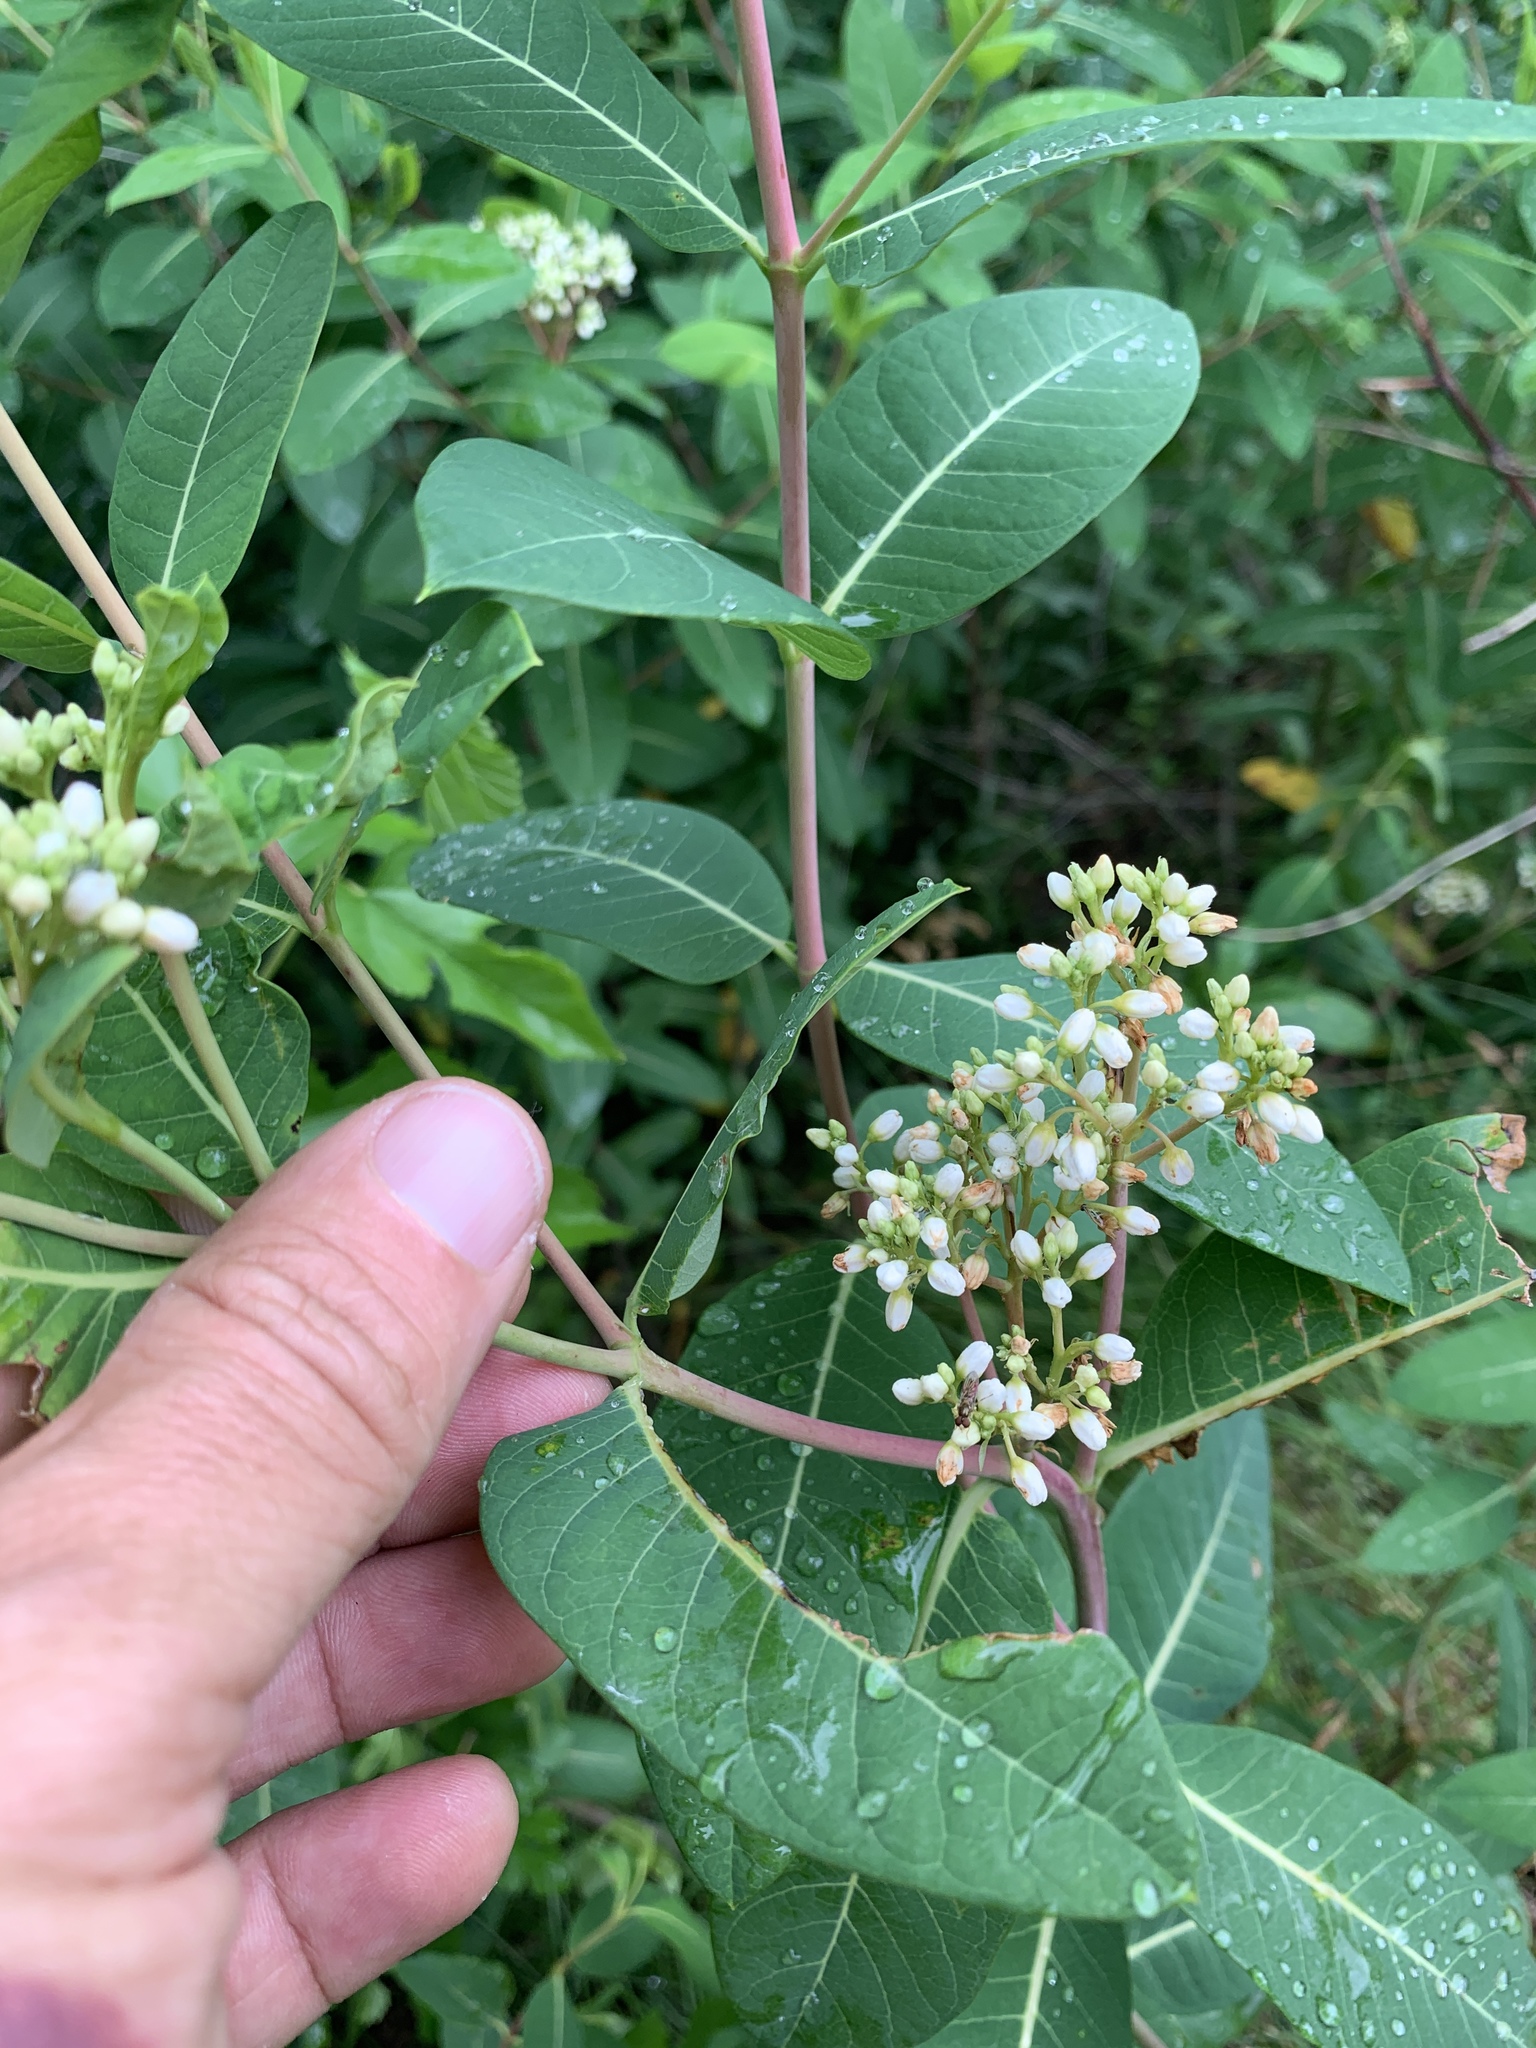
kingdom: Plantae
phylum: Tracheophyta
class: Magnoliopsida
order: Gentianales
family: Apocynaceae
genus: Apocynum
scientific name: Apocynum cannabinum
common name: Hemp dogbane
